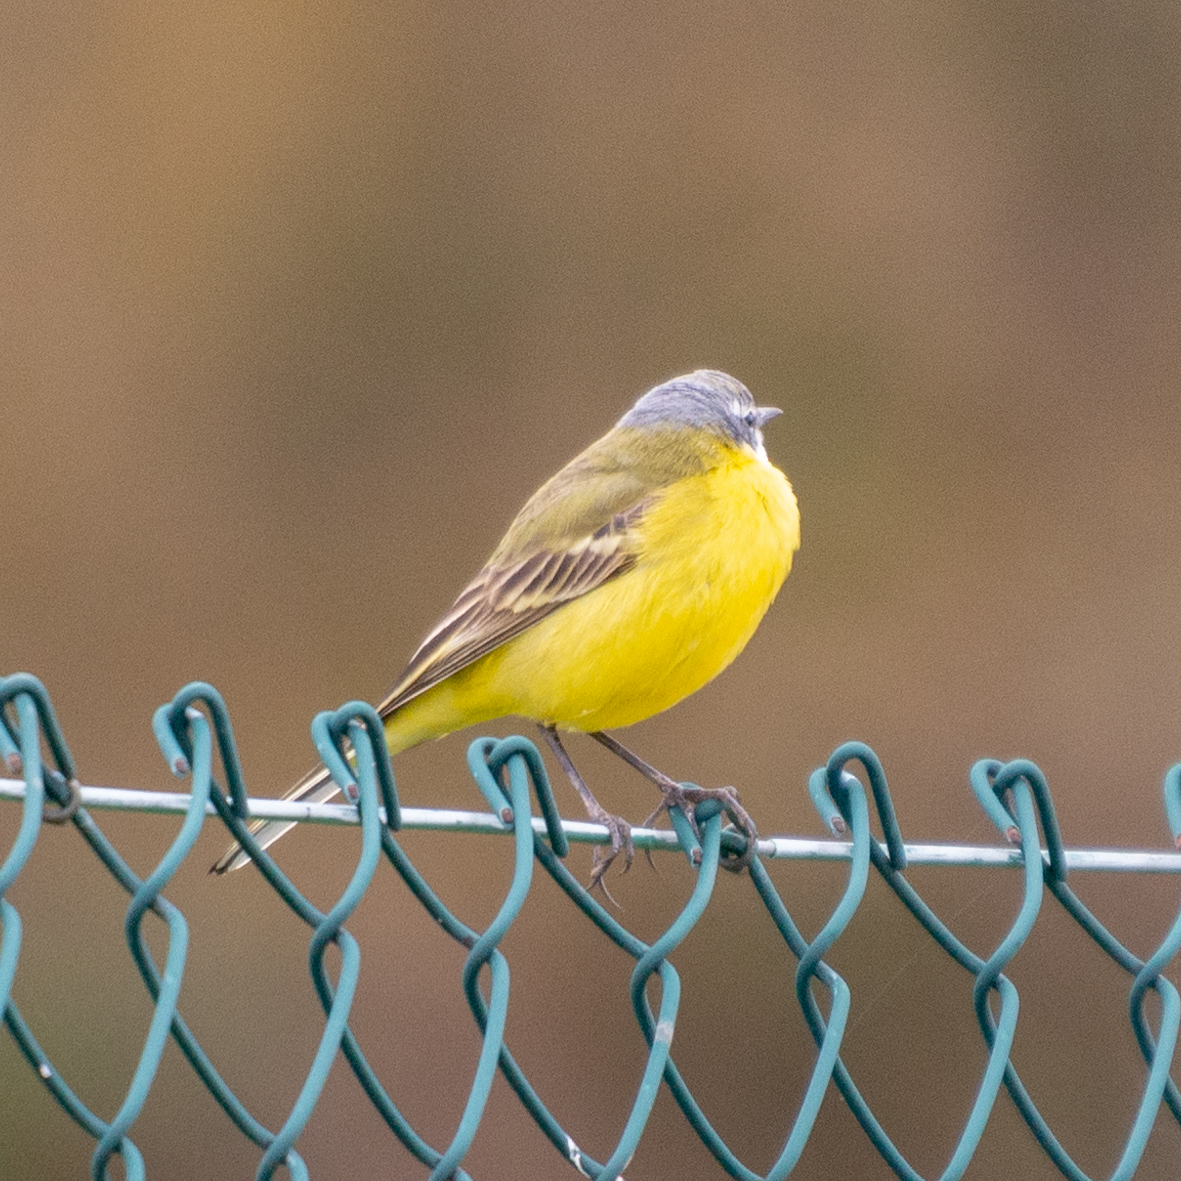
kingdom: Animalia
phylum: Chordata
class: Aves
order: Passeriformes
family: Motacillidae
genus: Motacilla
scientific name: Motacilla flava
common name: Western yellow wagtail
